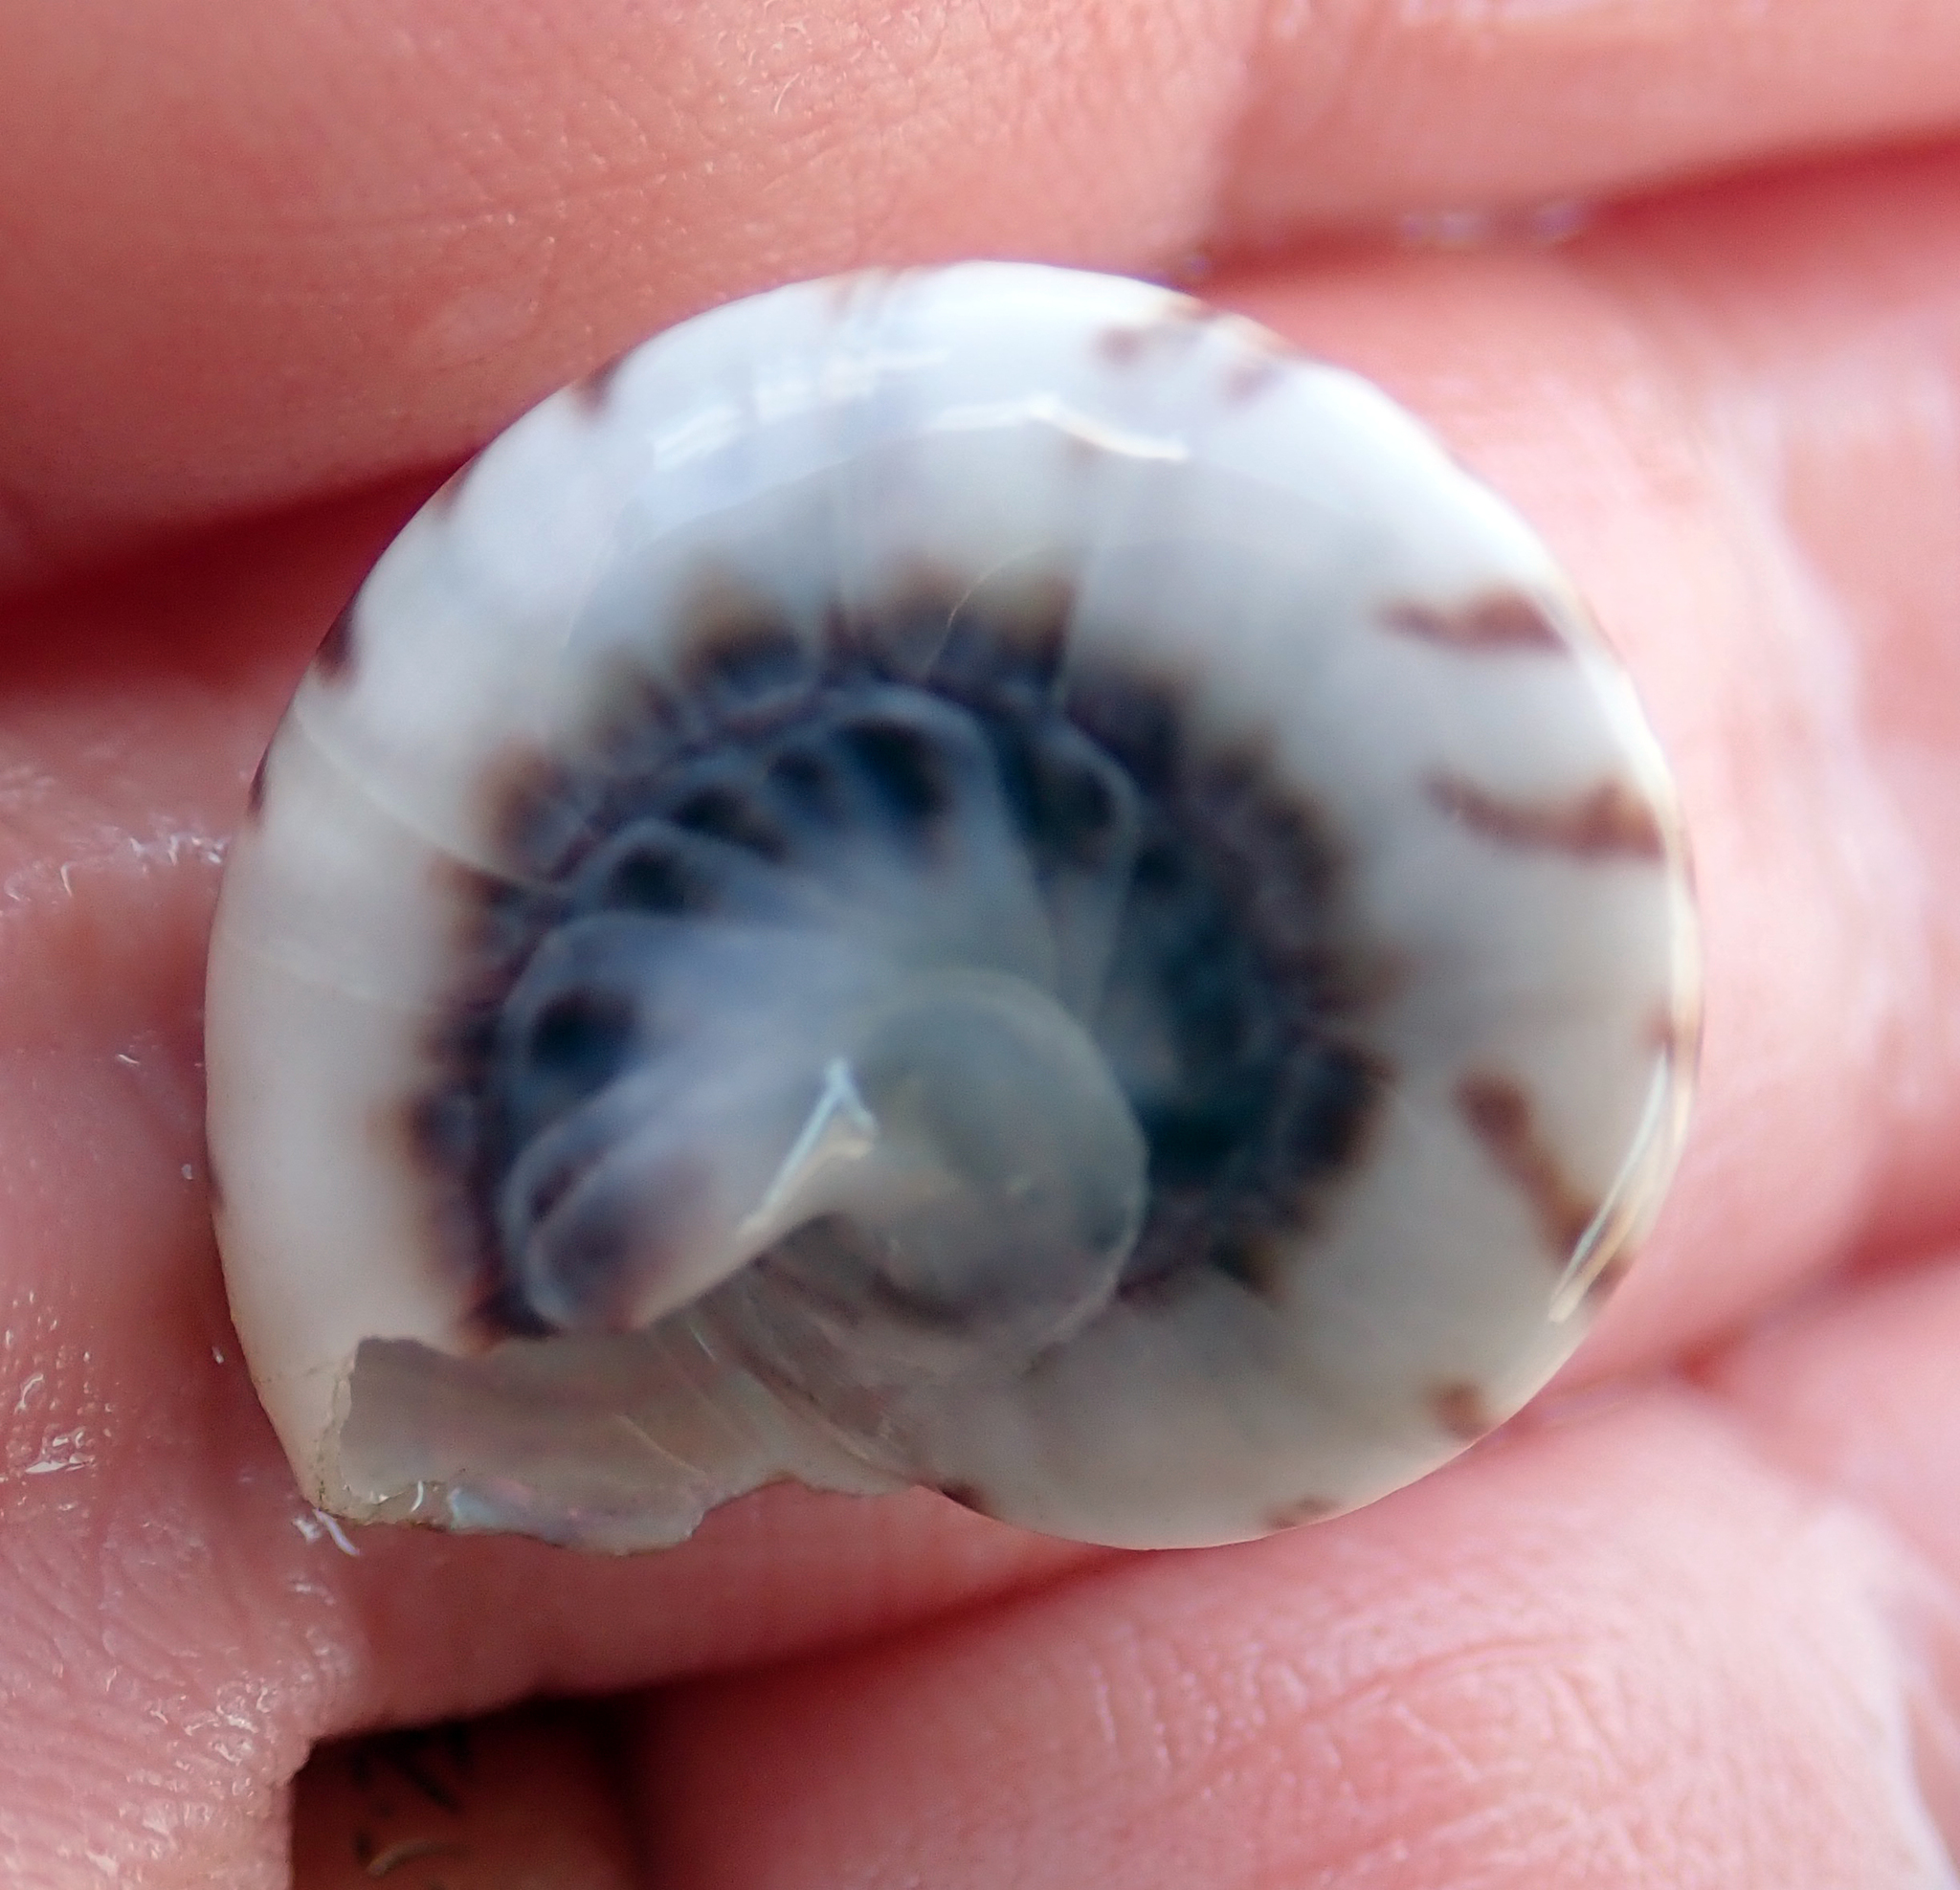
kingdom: Animalia
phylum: Mollusca
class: Gastropoda
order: Trochida
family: Trochidae
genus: Zethalia
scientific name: Zethalia zelandica
